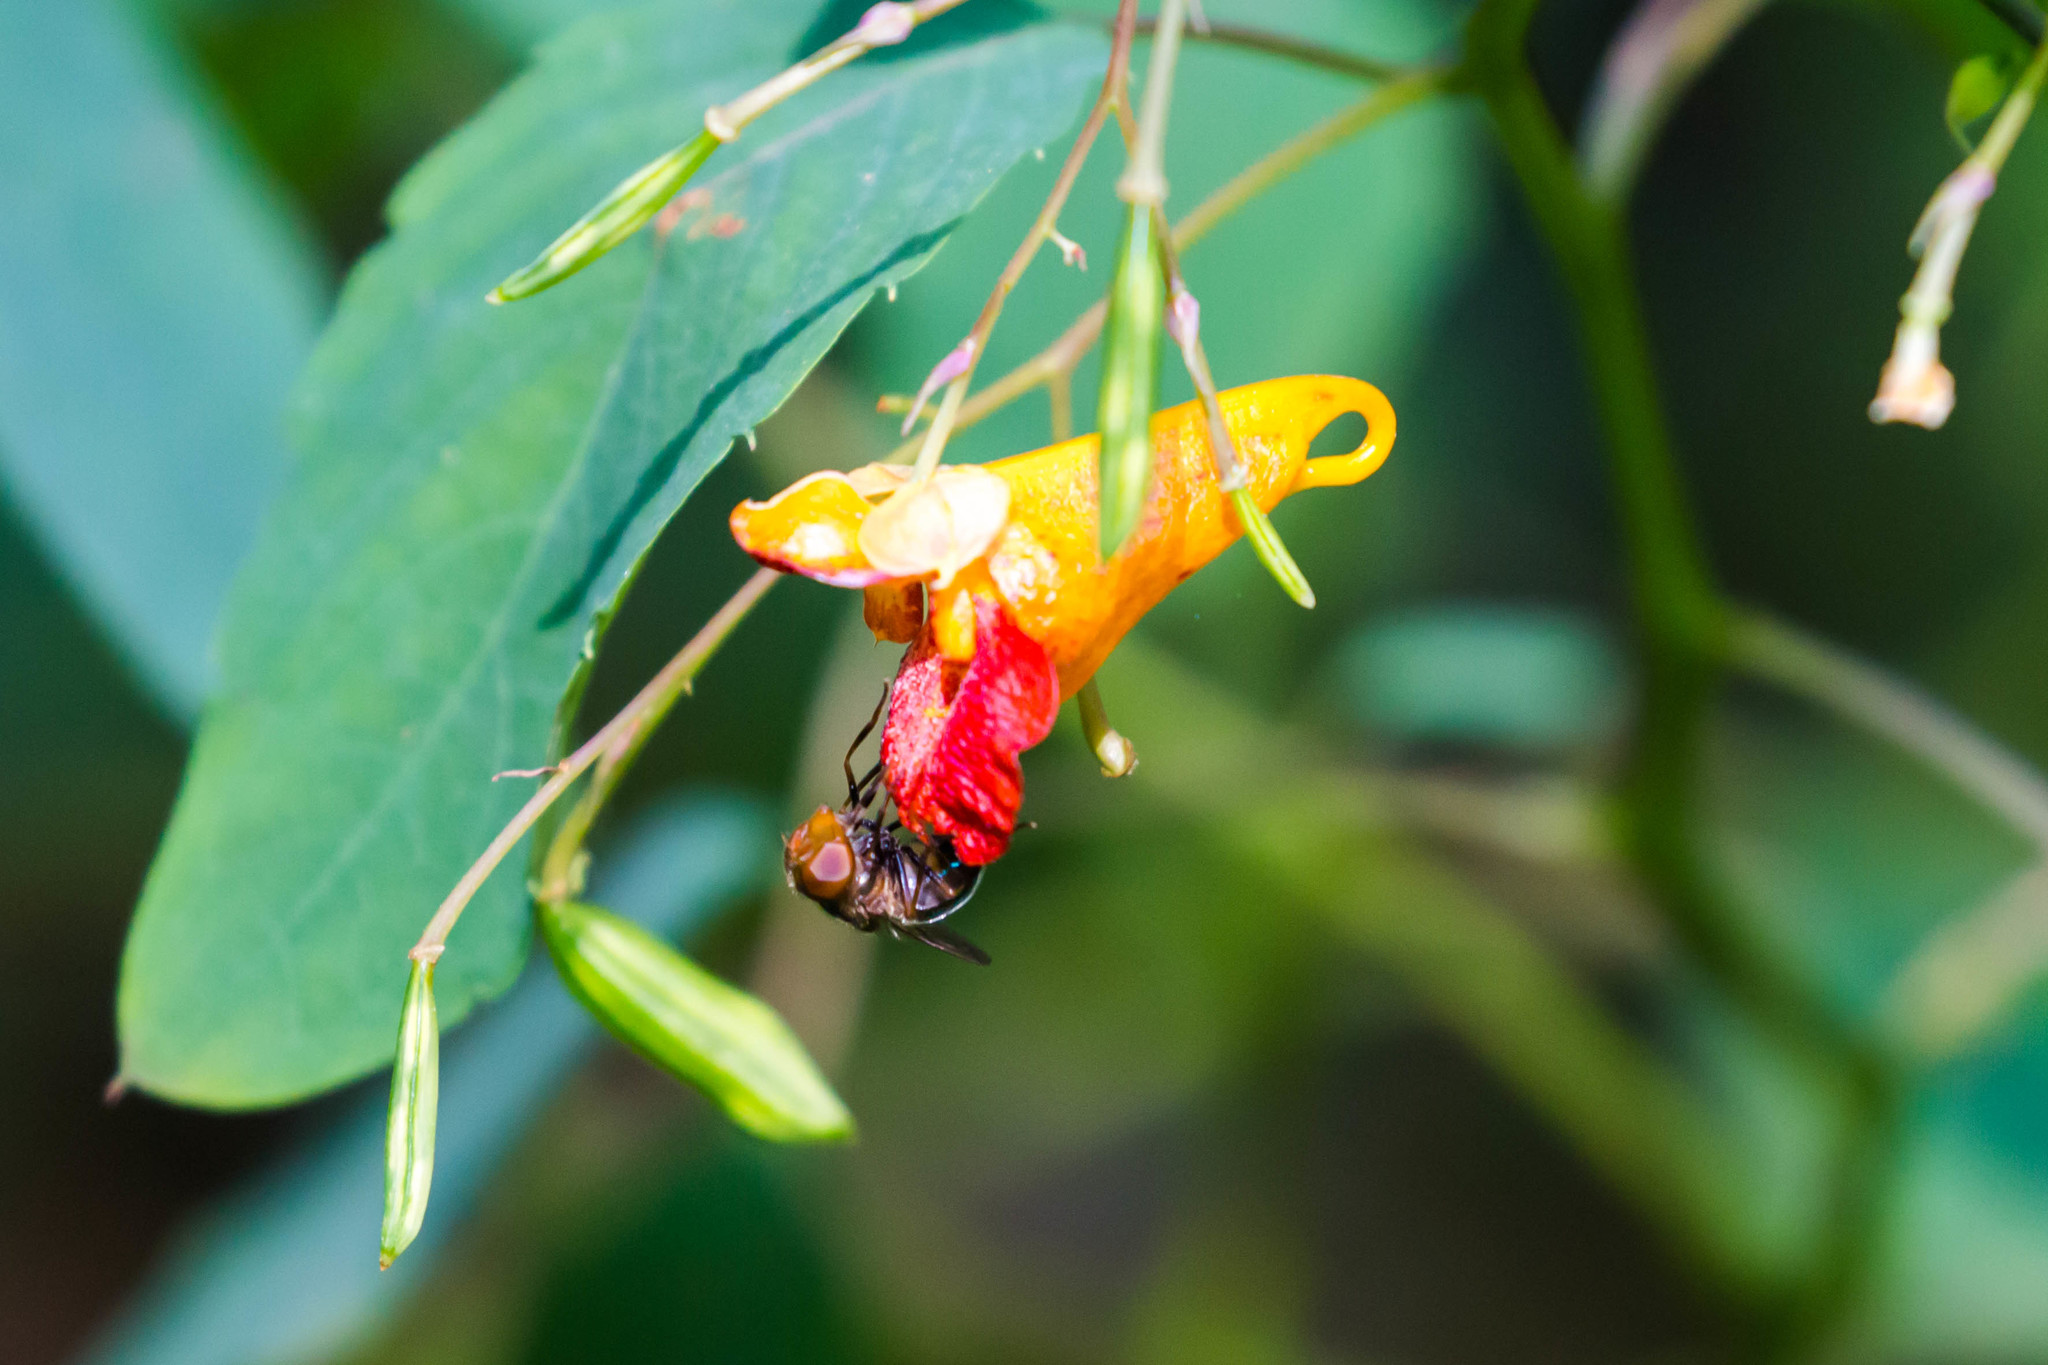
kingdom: Animalia
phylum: Arthropoda
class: Insecta
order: Diptera
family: Syrphidae
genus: Copestylum
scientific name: Copestylum
